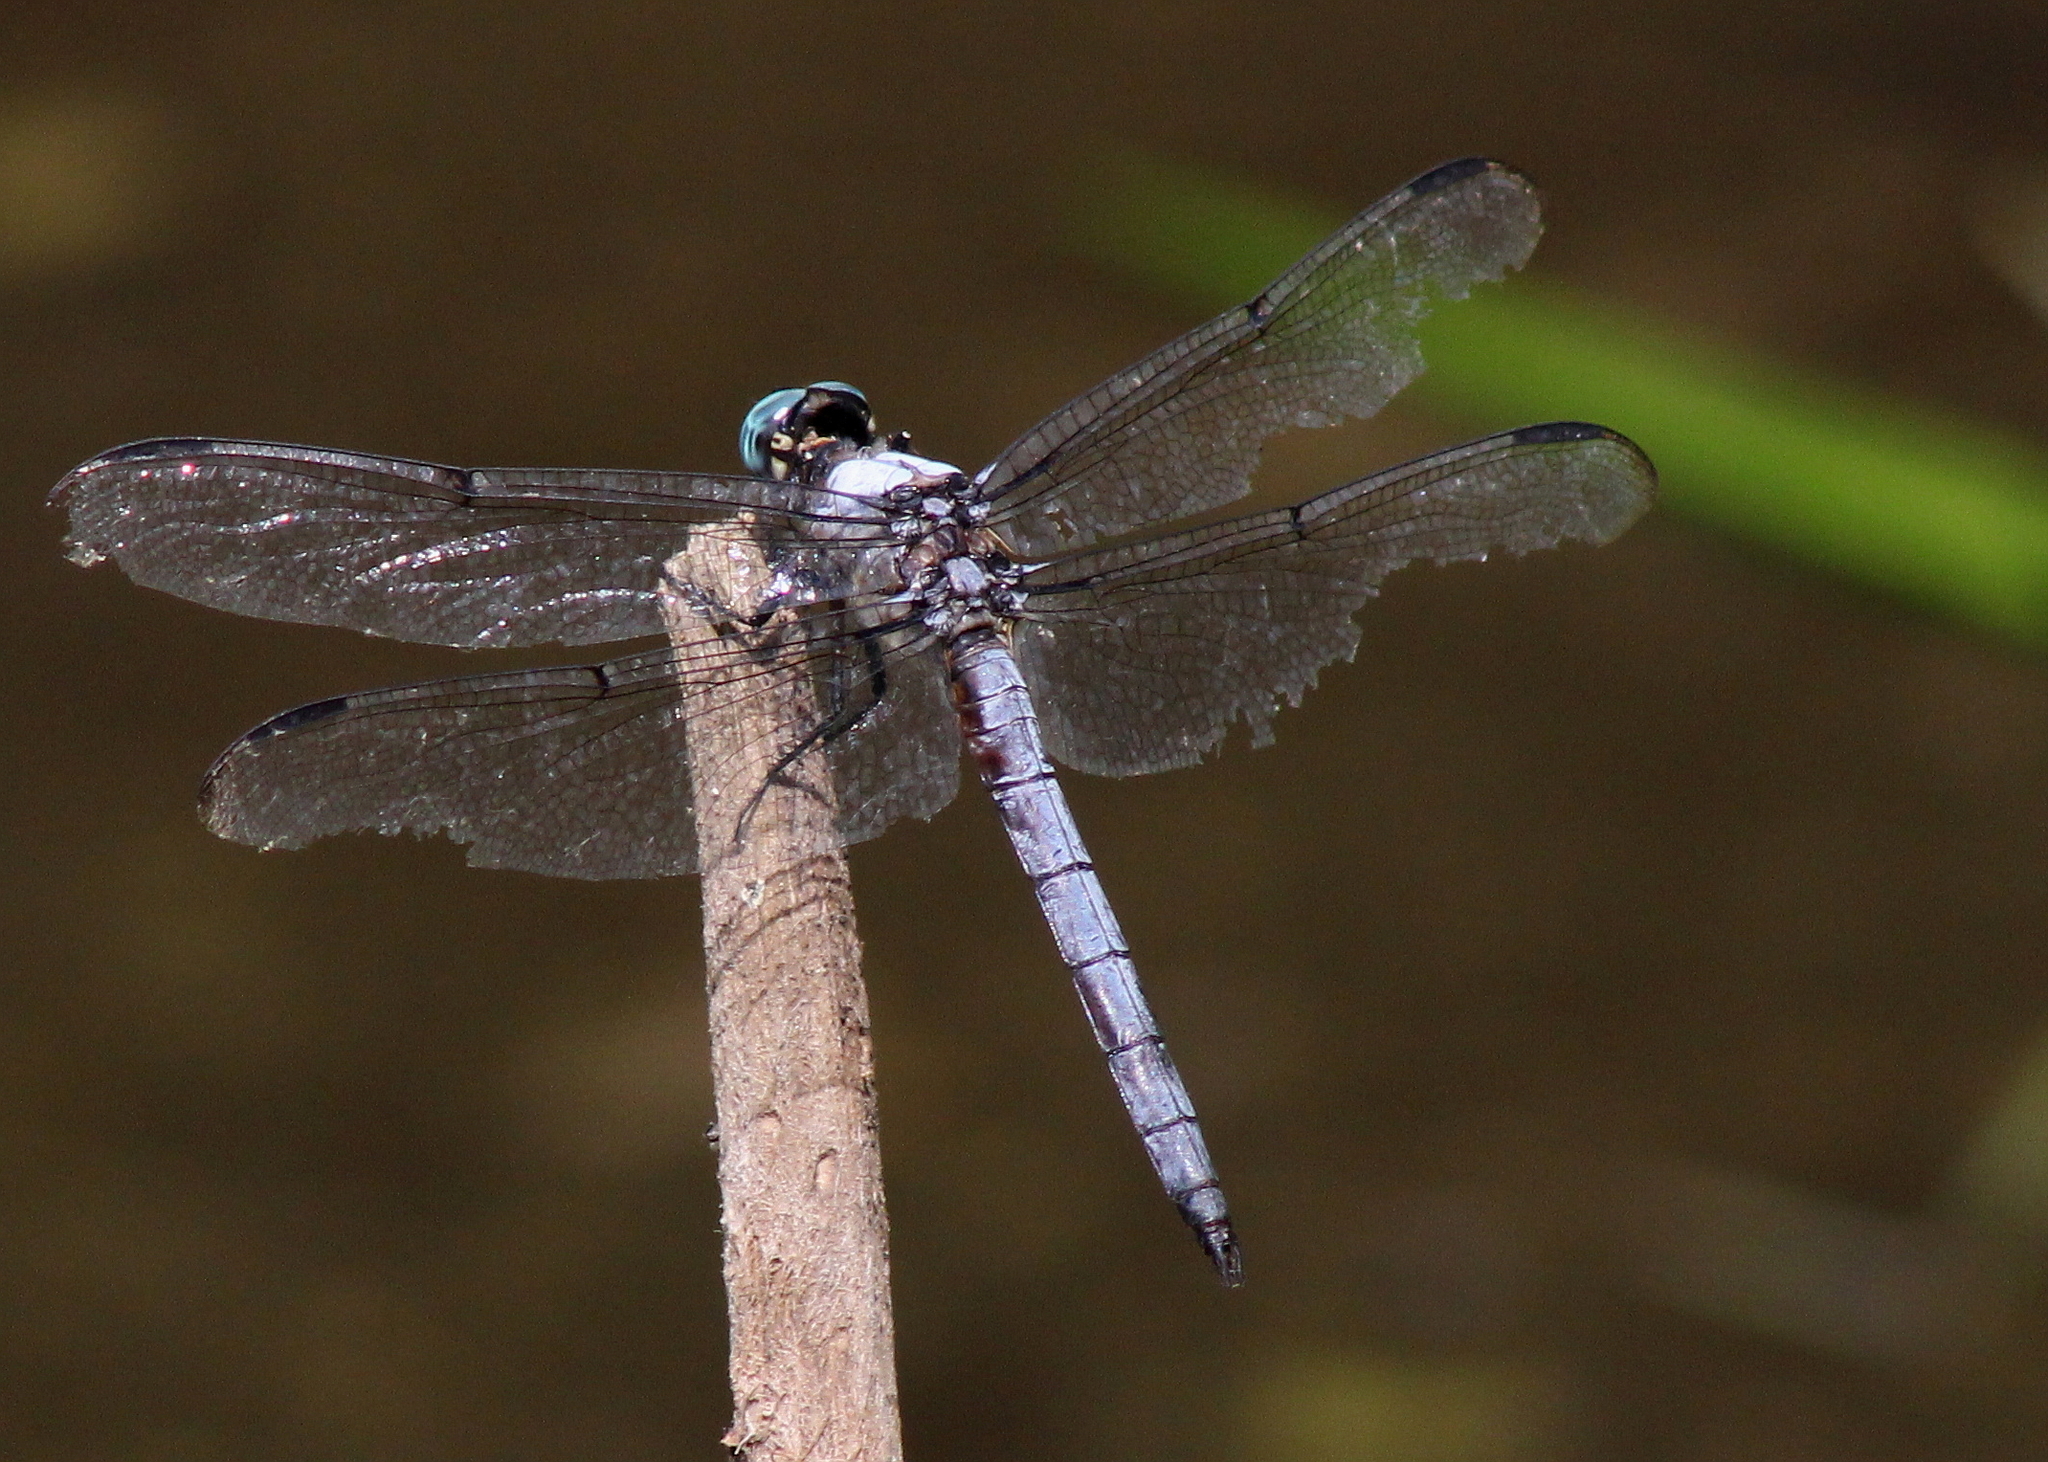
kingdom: Animalia
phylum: Arthropoda
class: Insecta
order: Odonata
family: Libellulidae
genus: Libellula
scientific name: Libellula vibrans
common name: Great blue skimmer
